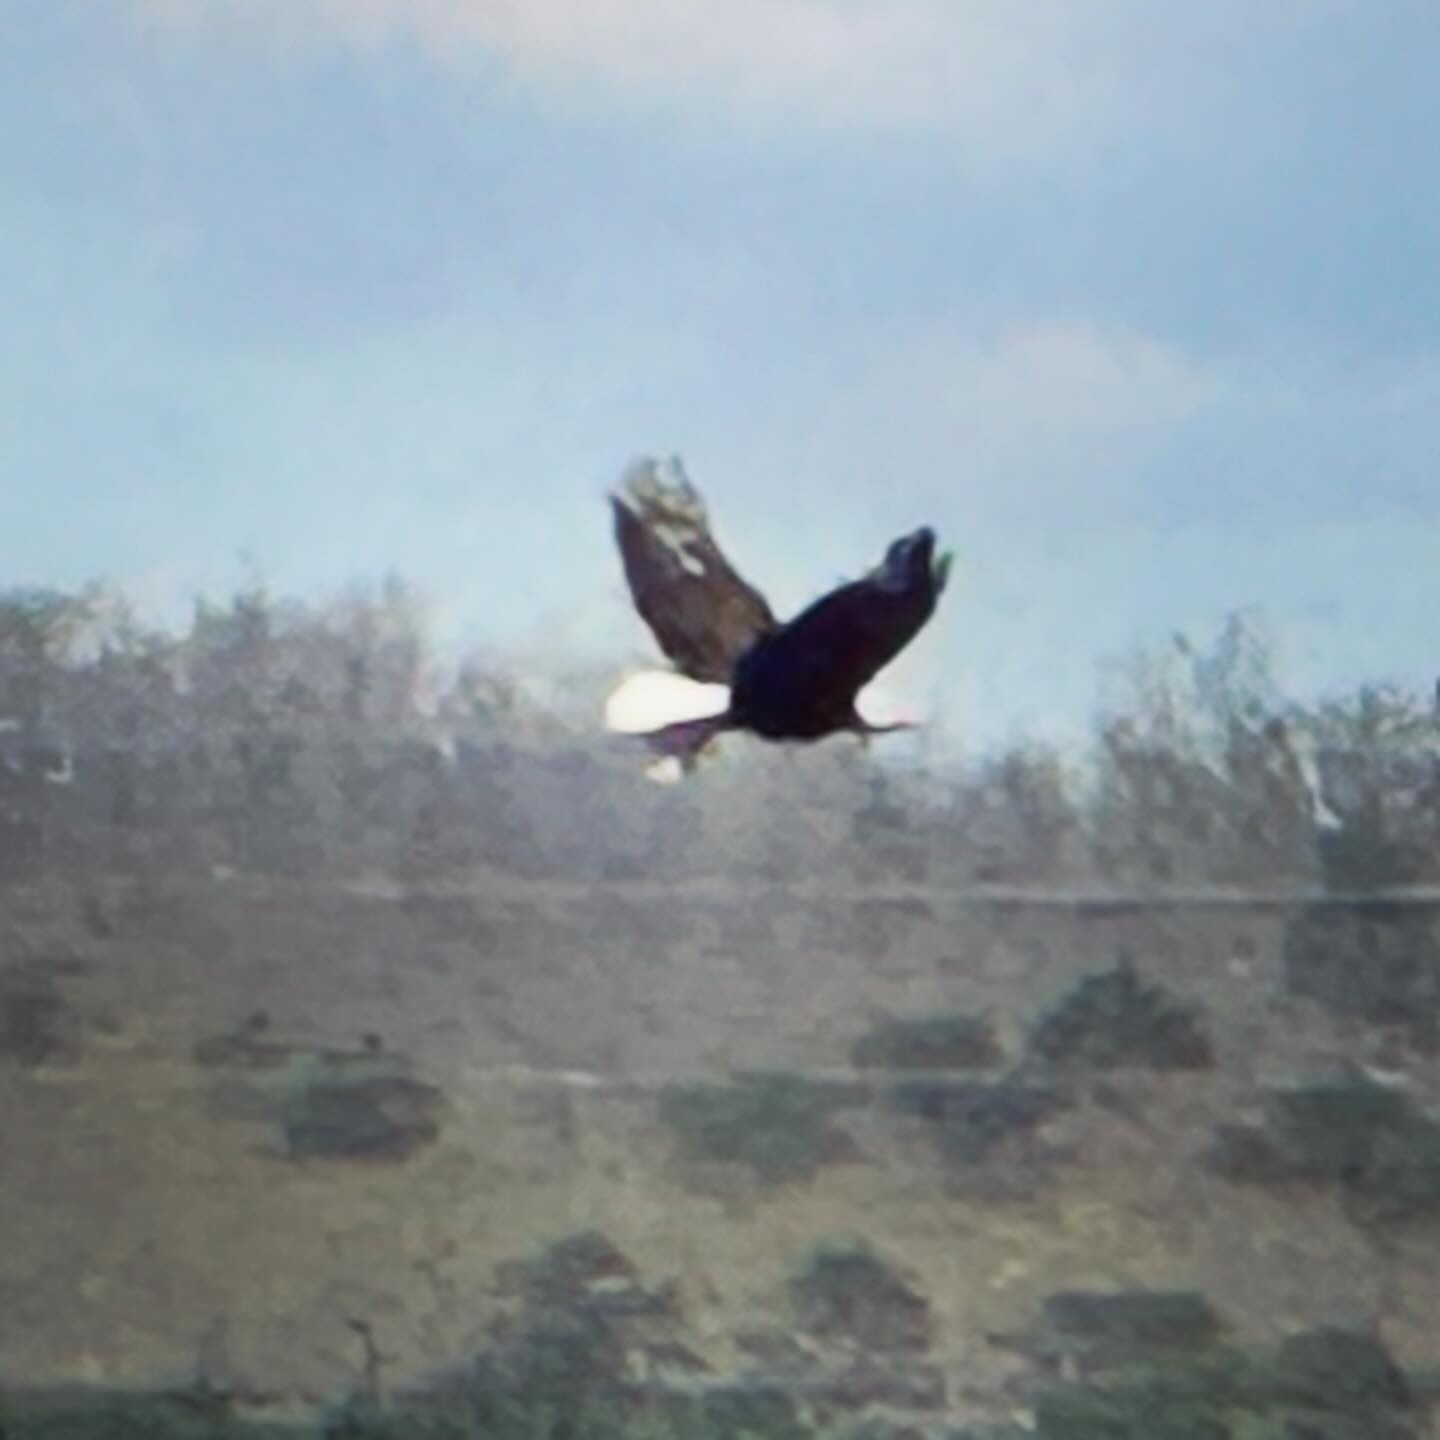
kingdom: Animalia
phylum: Chordata
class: Aves
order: Accipitriformes
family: Accipitridae
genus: Haliaeetus
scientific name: Haliaeetus leucocephalus
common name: Bald eagle
